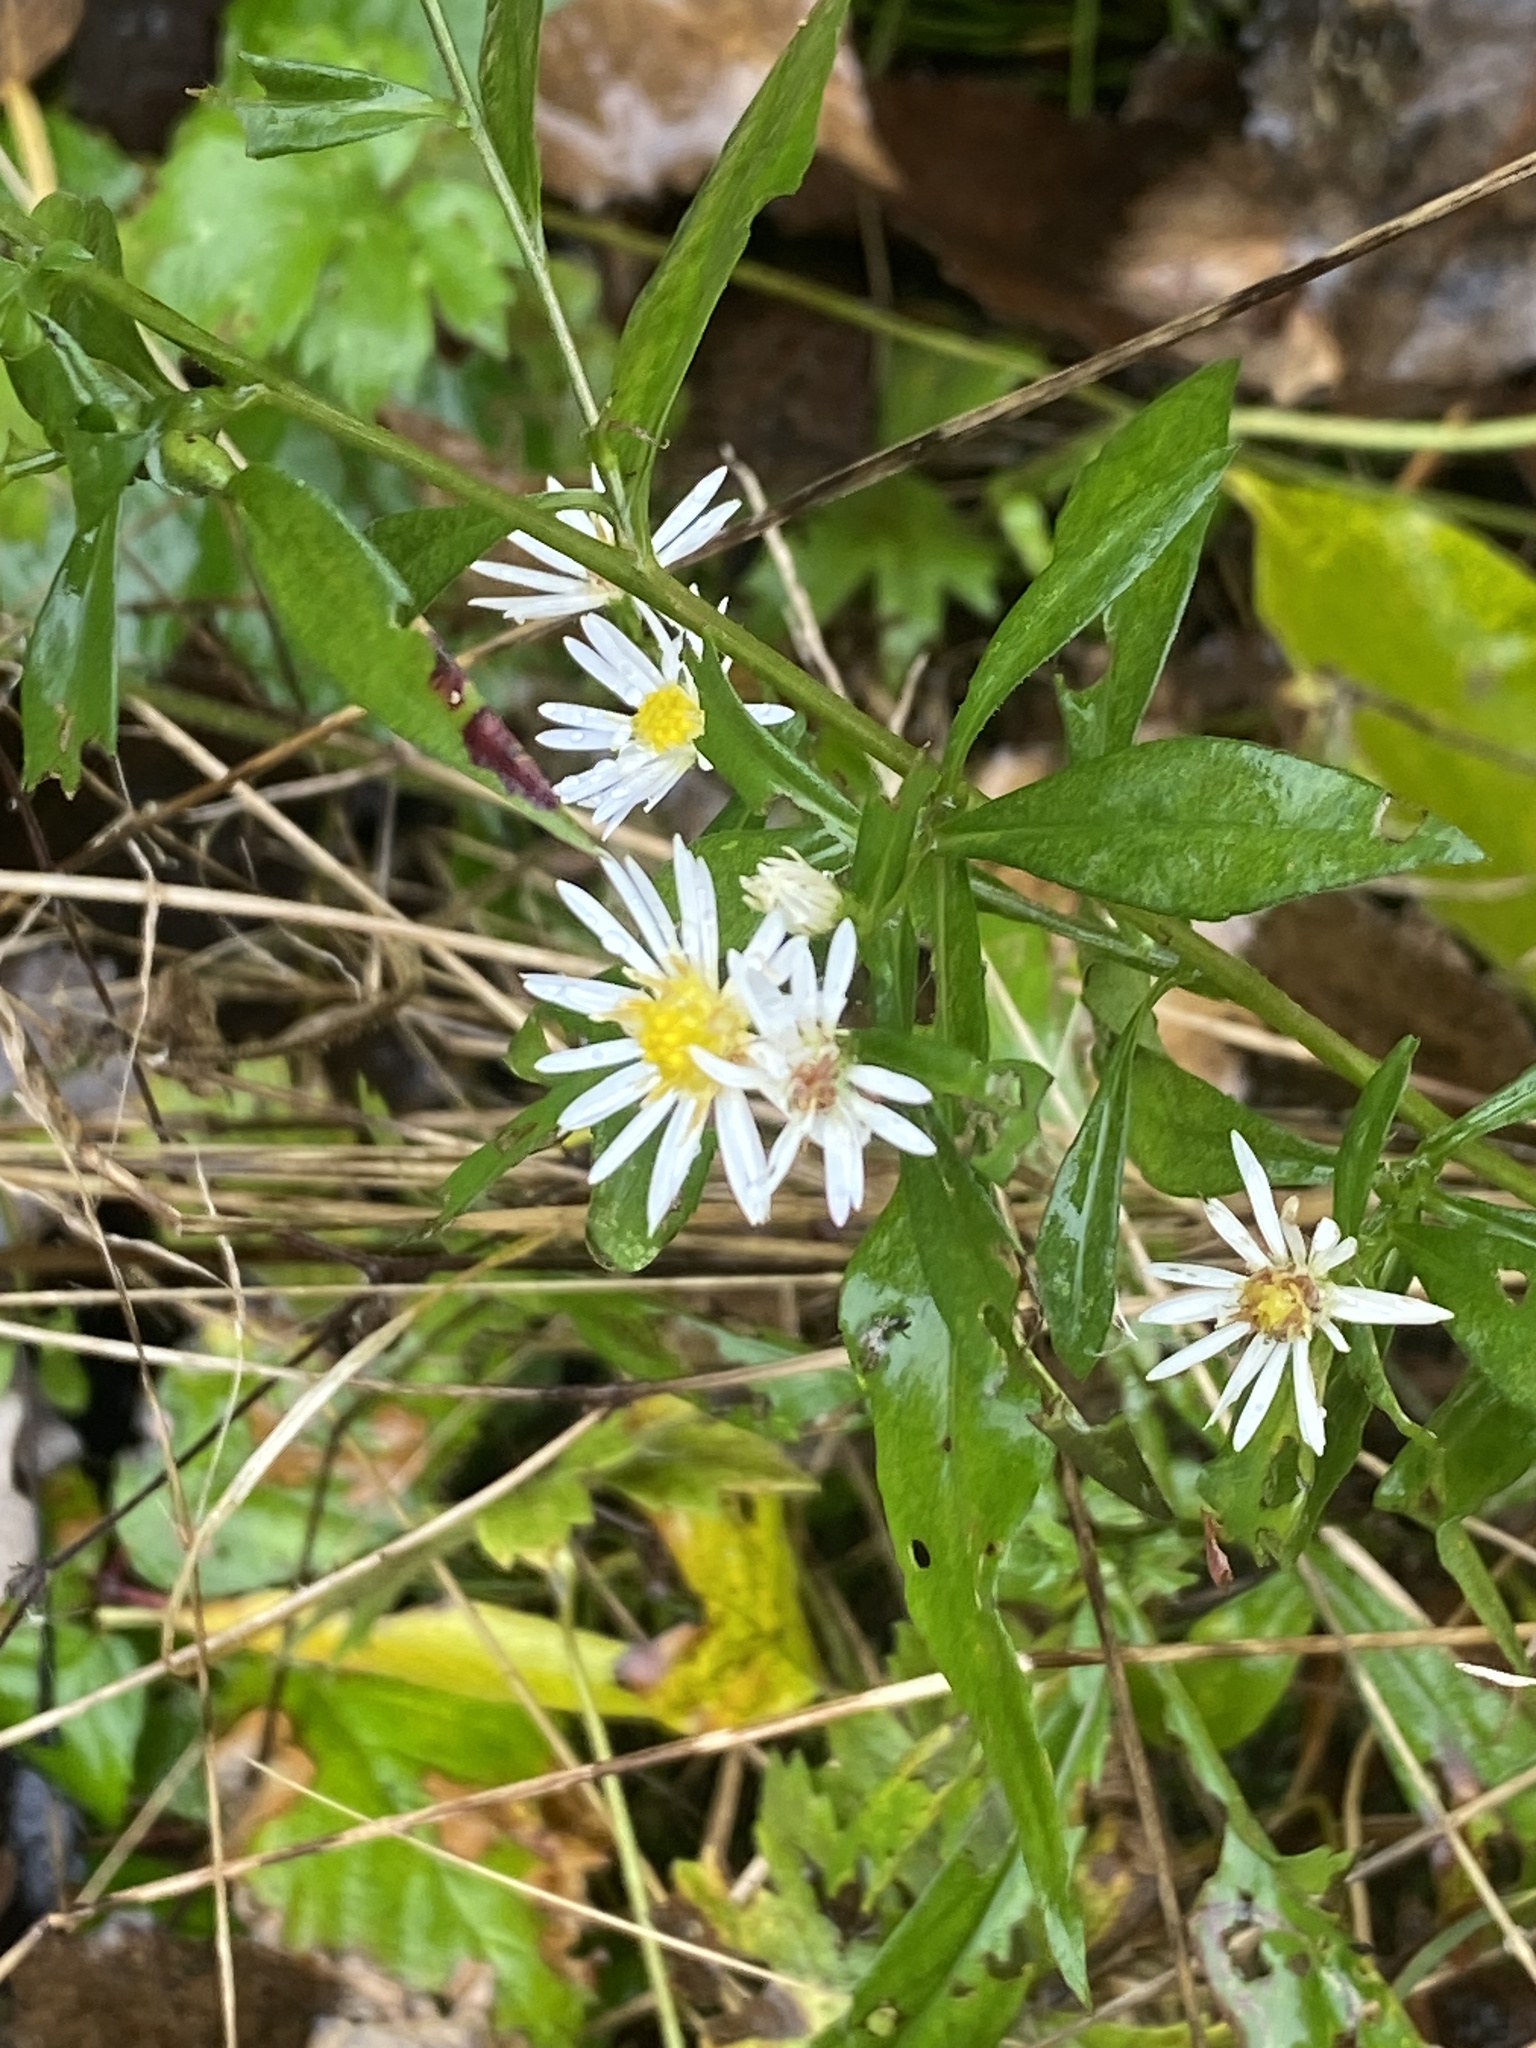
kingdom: Plantae
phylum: Tracheophyta
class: Magnoliopsida
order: Asterales
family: Asteraceae
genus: Symphyotrichum
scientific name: Symphyotrichum lanceolatum
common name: Panicled aster
